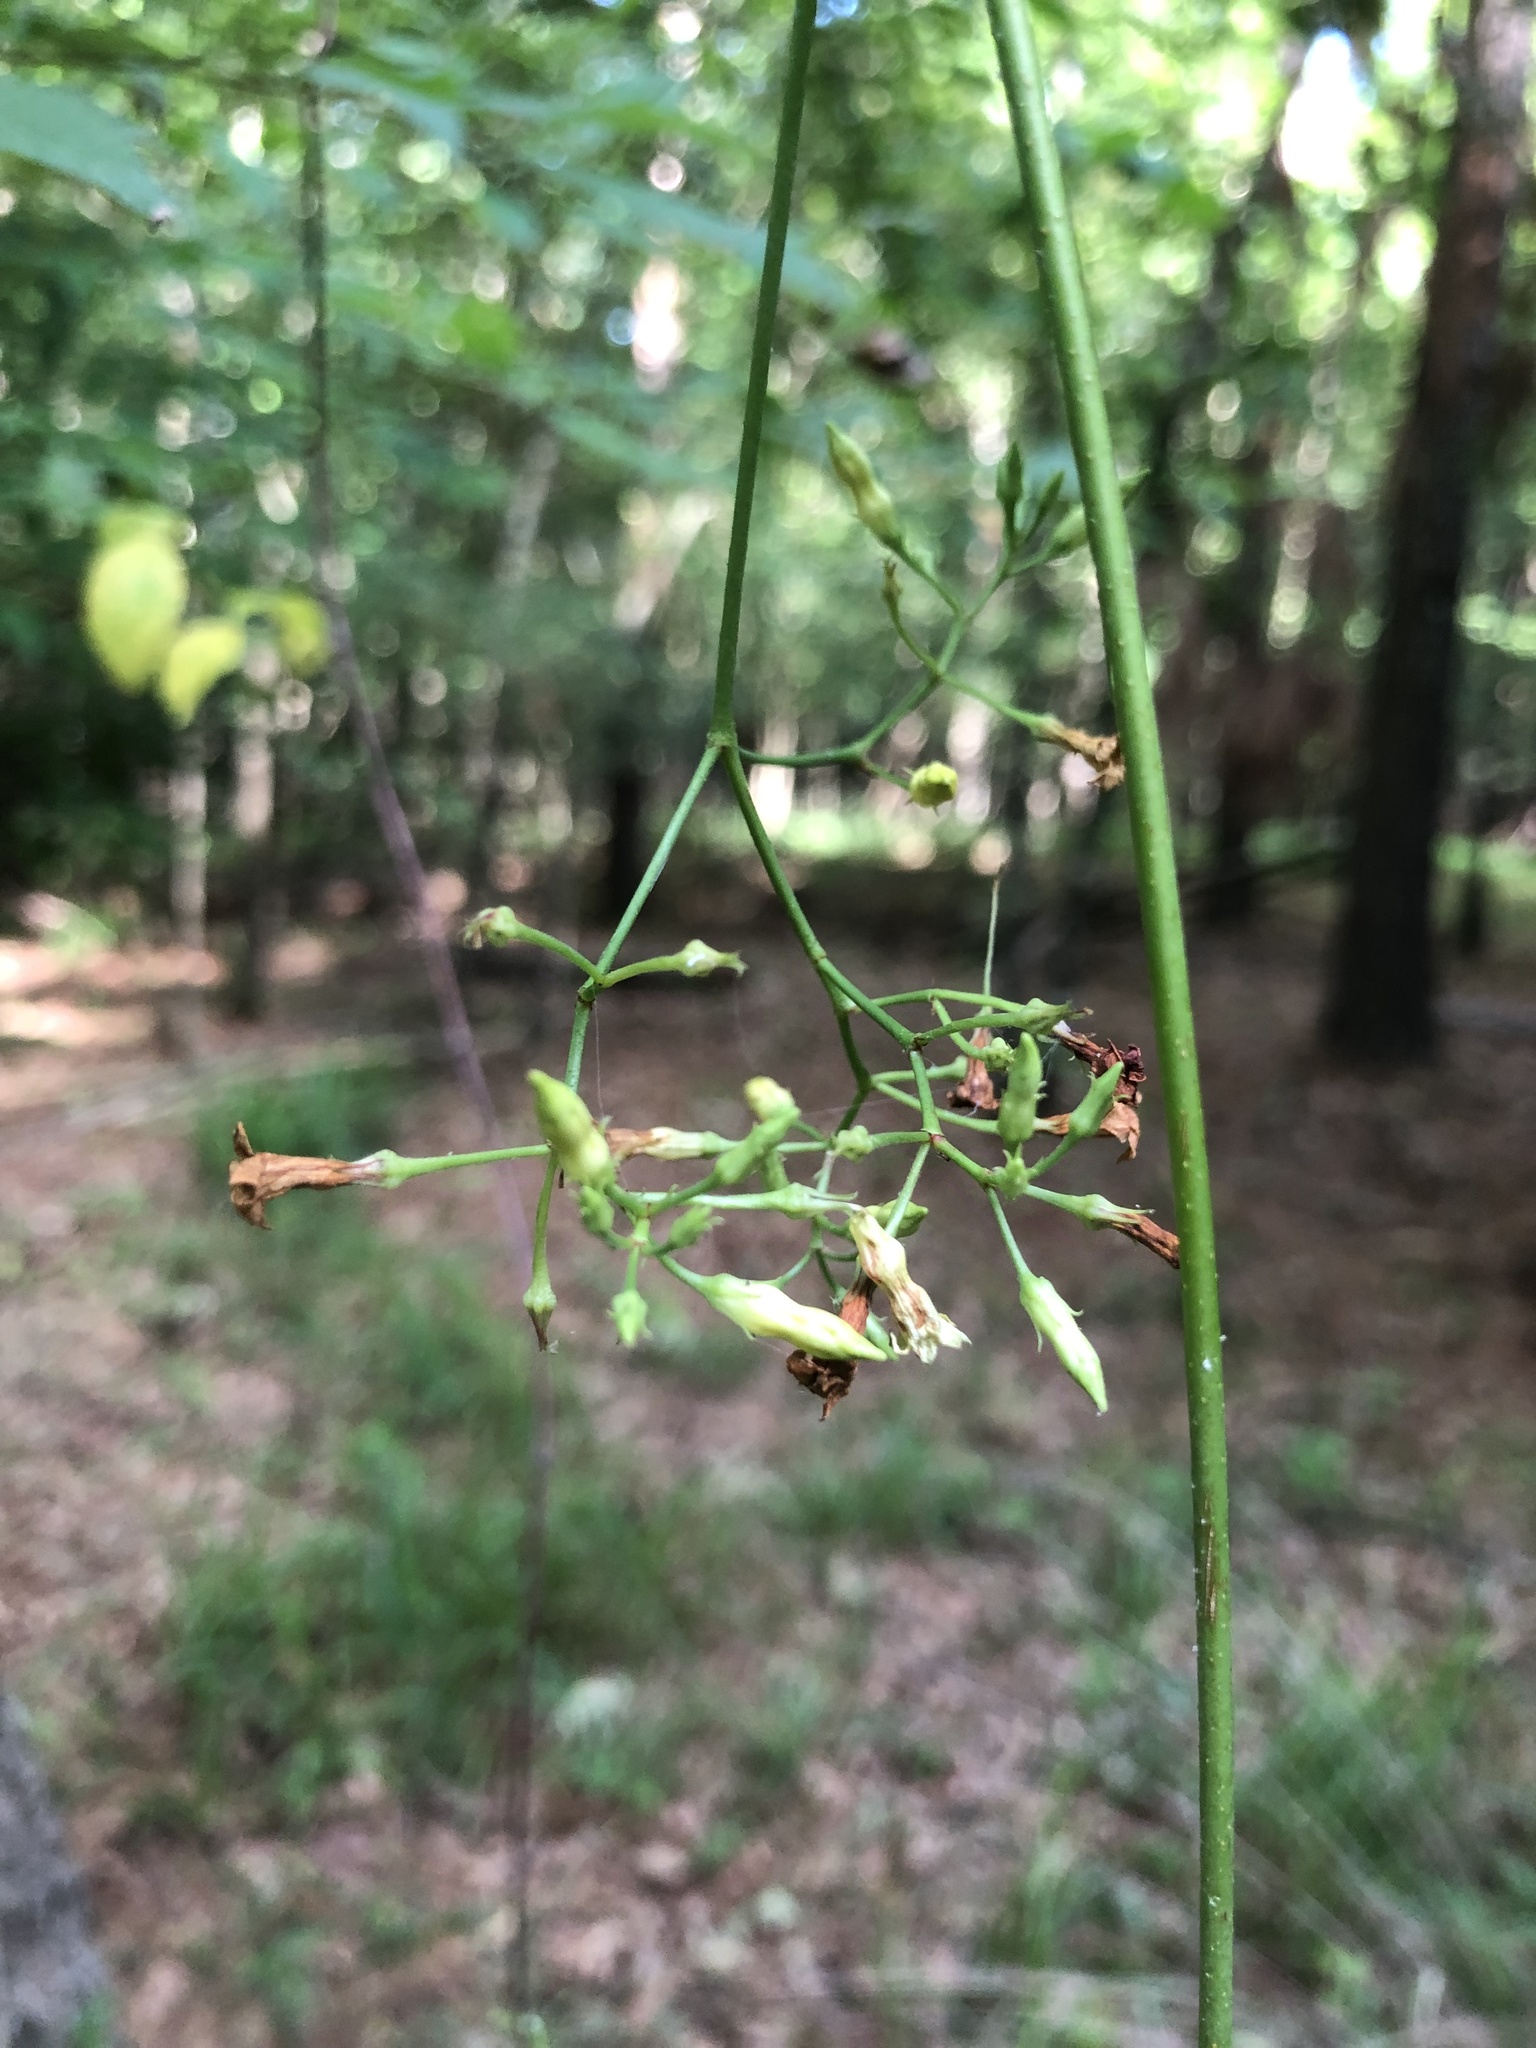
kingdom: Plantae
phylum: Tracheophyta
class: Magnoliopsida
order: Gentianales
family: Apocynaceae
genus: Thyrsanthella
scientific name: Thyrsanthella difformis
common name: Climbing dogbane
